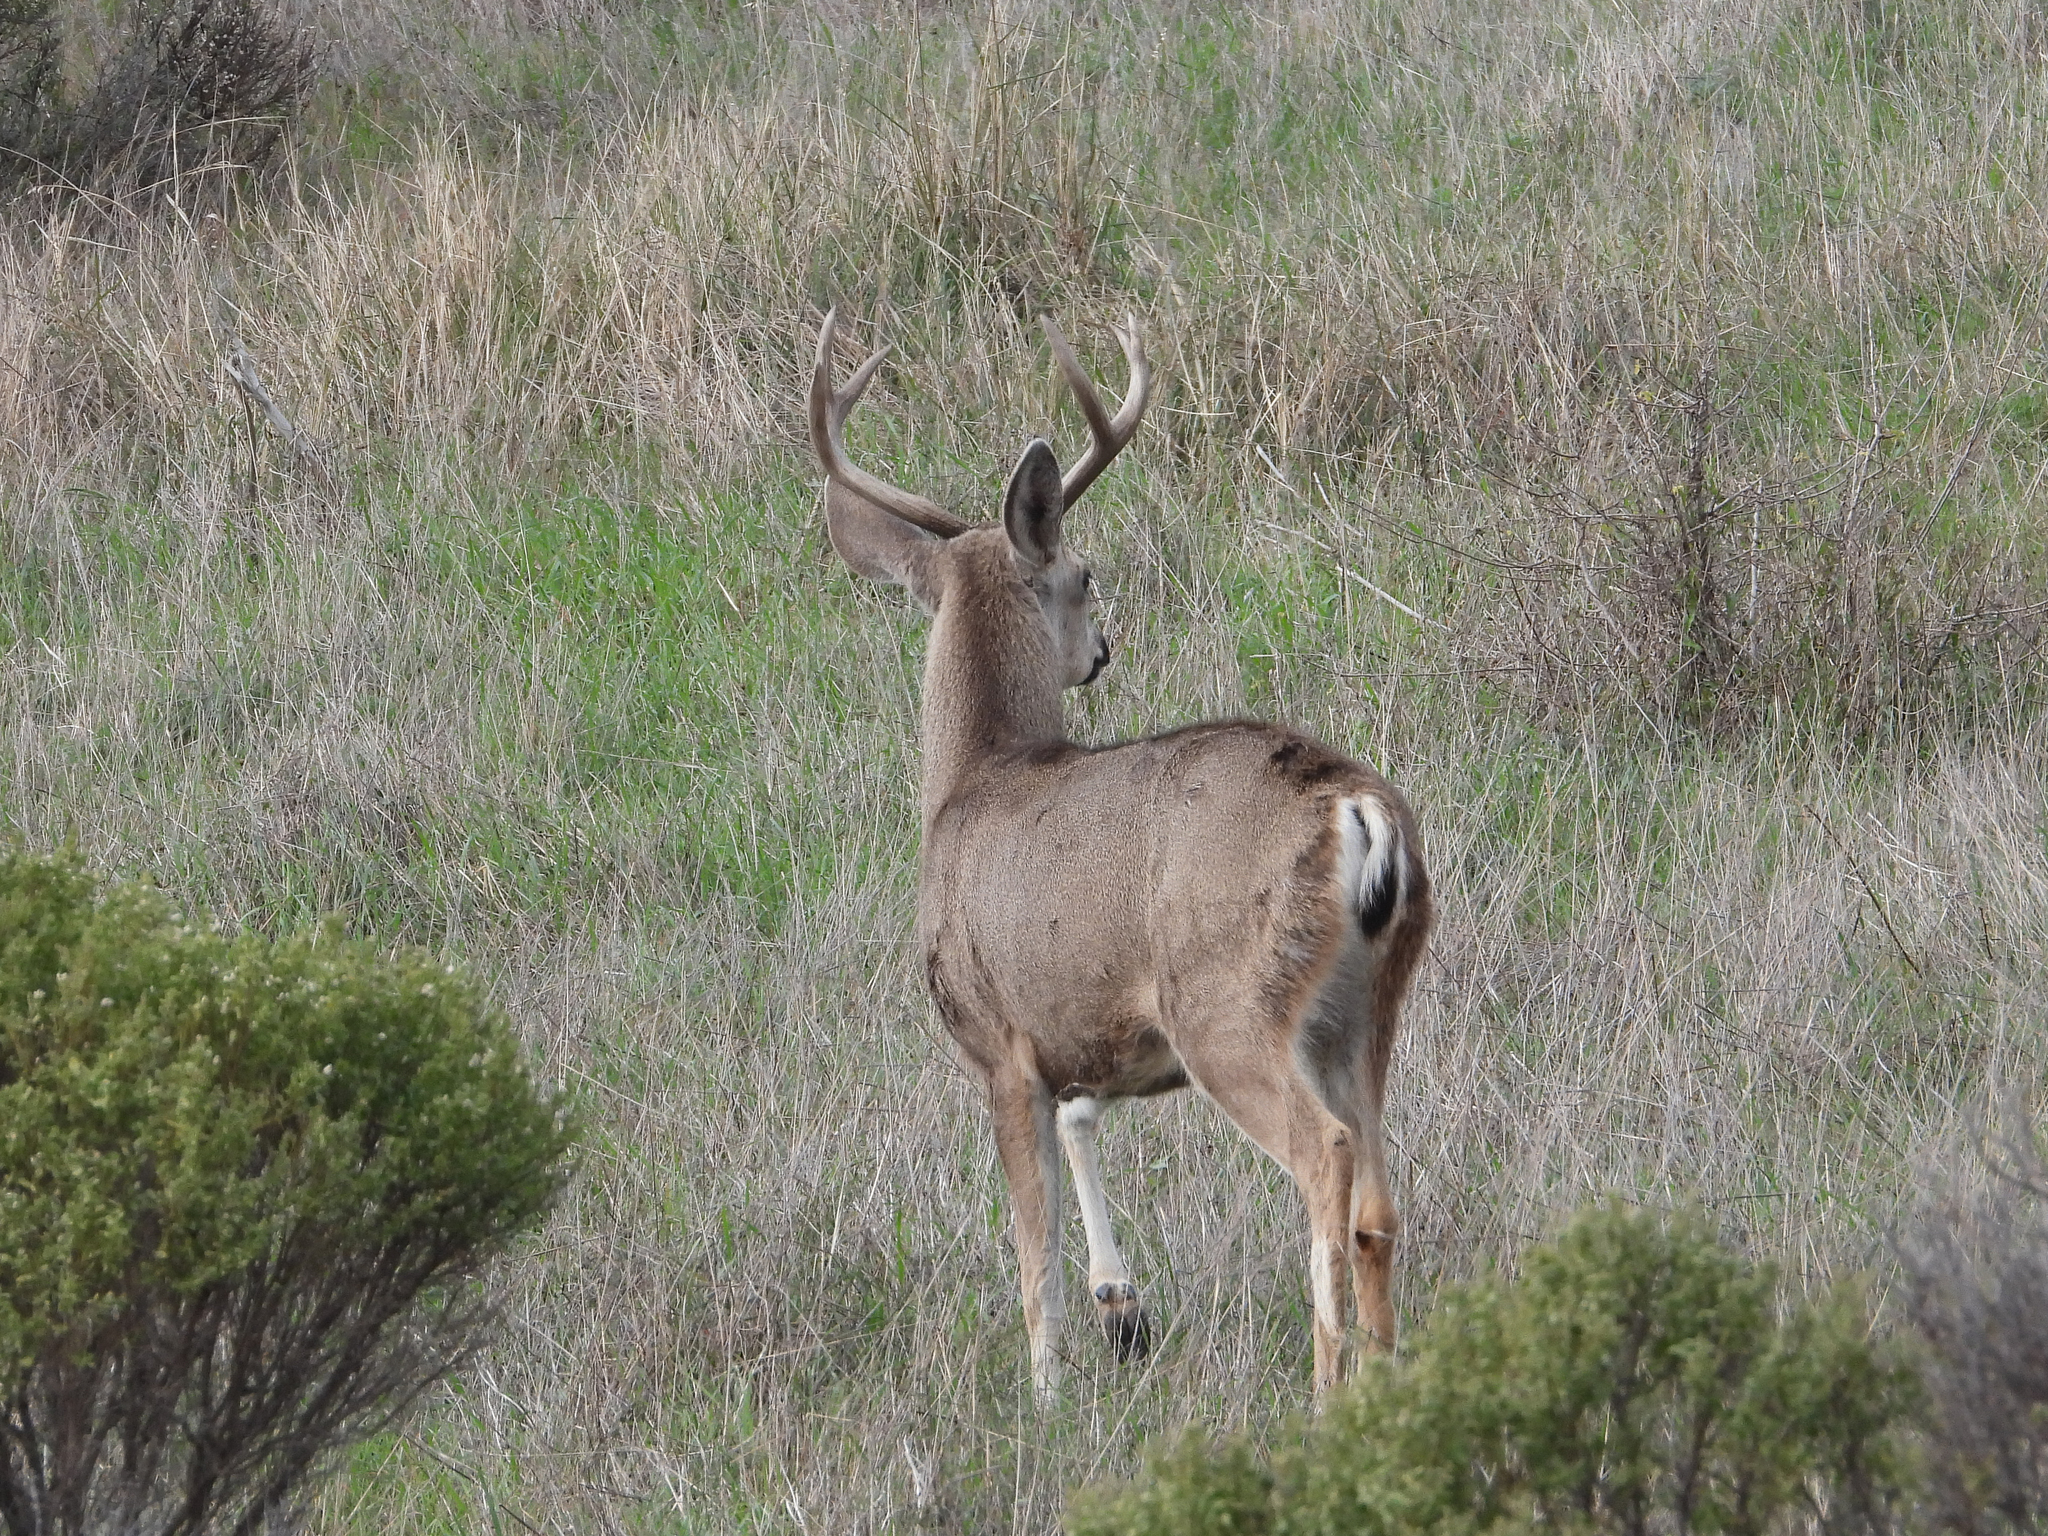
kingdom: Animalia
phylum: Chordata
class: Mammalia
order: Artiodactyla
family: Cervidae
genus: Odocoileus
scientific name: Odocoileus hemionus
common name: Mule deer
